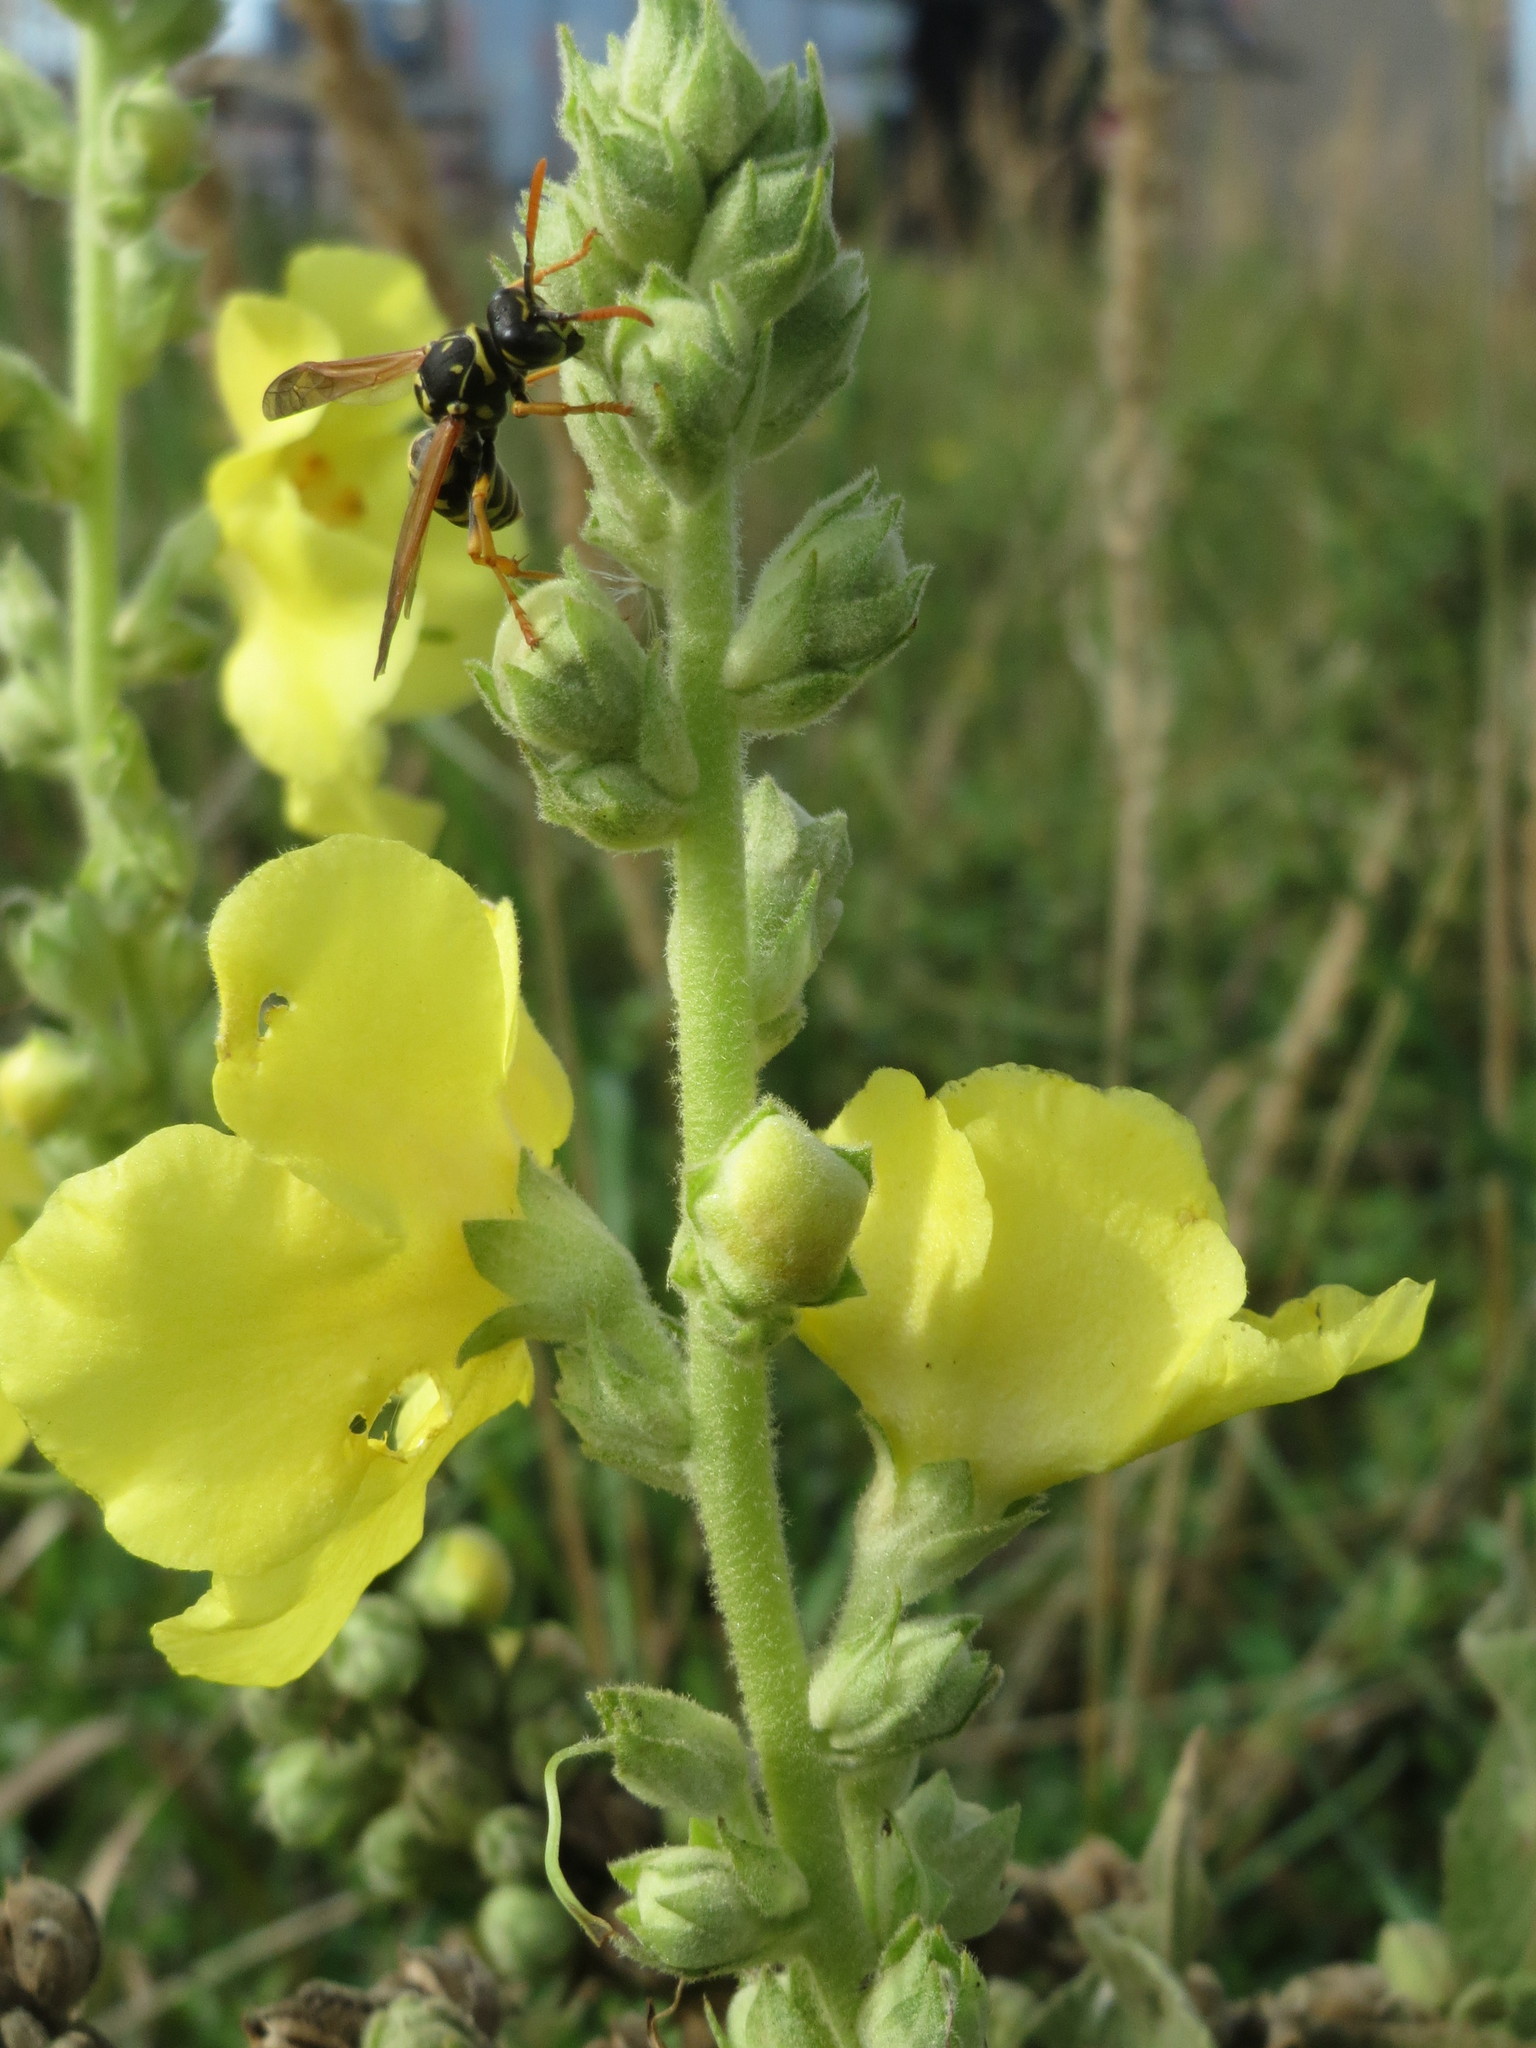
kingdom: Plantae
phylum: Tracheophyta
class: Magnoliopsida
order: Lamiales
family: Scrophulariaceae
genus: Verbascum
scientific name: Verbascum thapsus
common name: Common mullein
